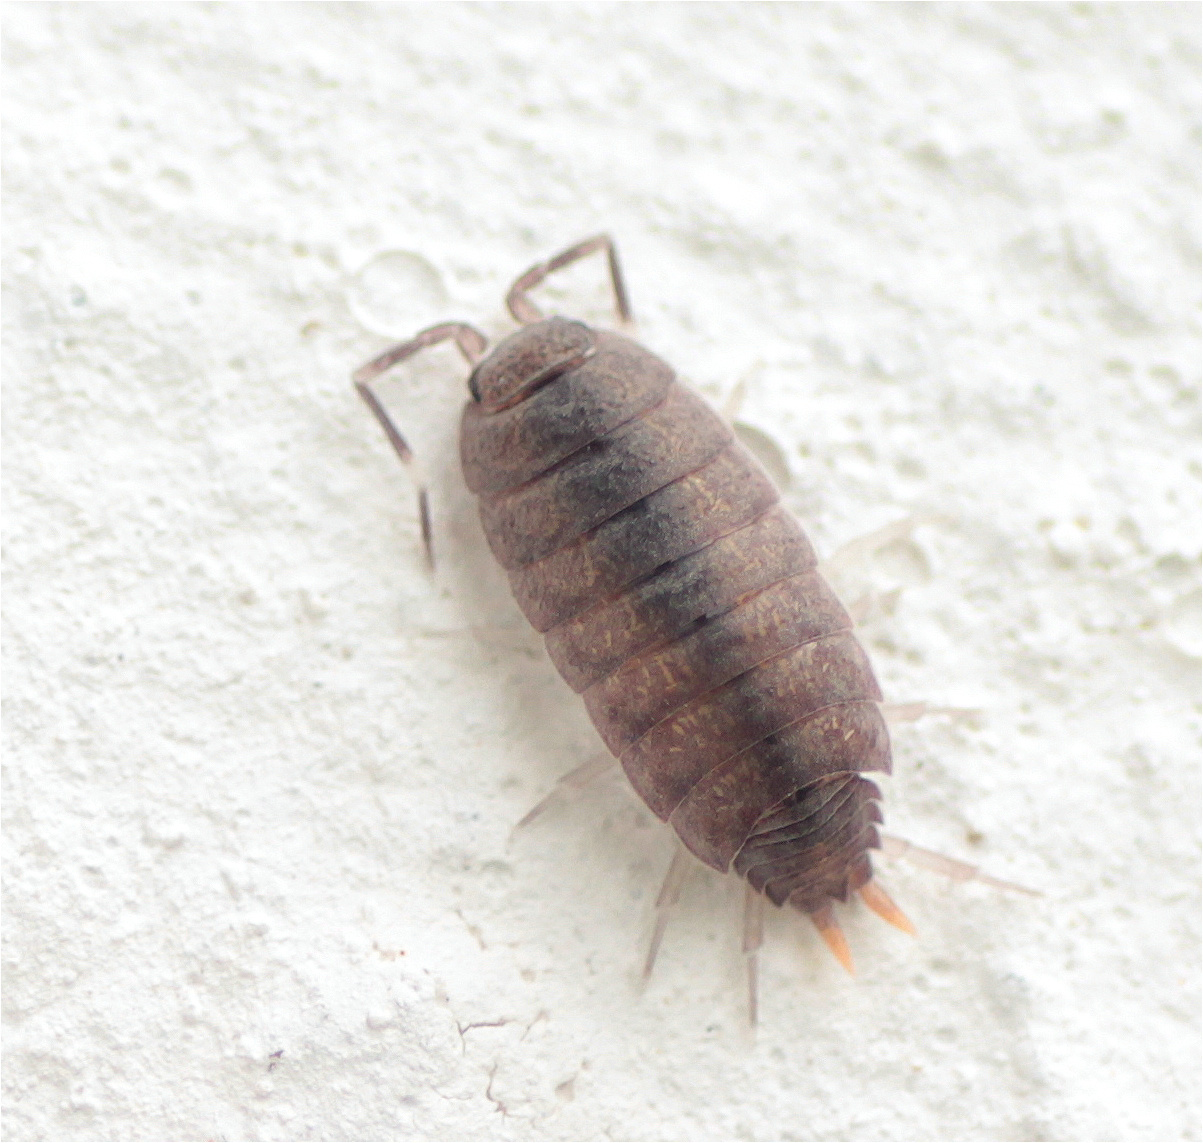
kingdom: Animalia
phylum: Arthropoda
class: Malacostraca
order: Isopoda
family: Porcellionidae
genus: Porcellionides
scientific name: Porcellionides
